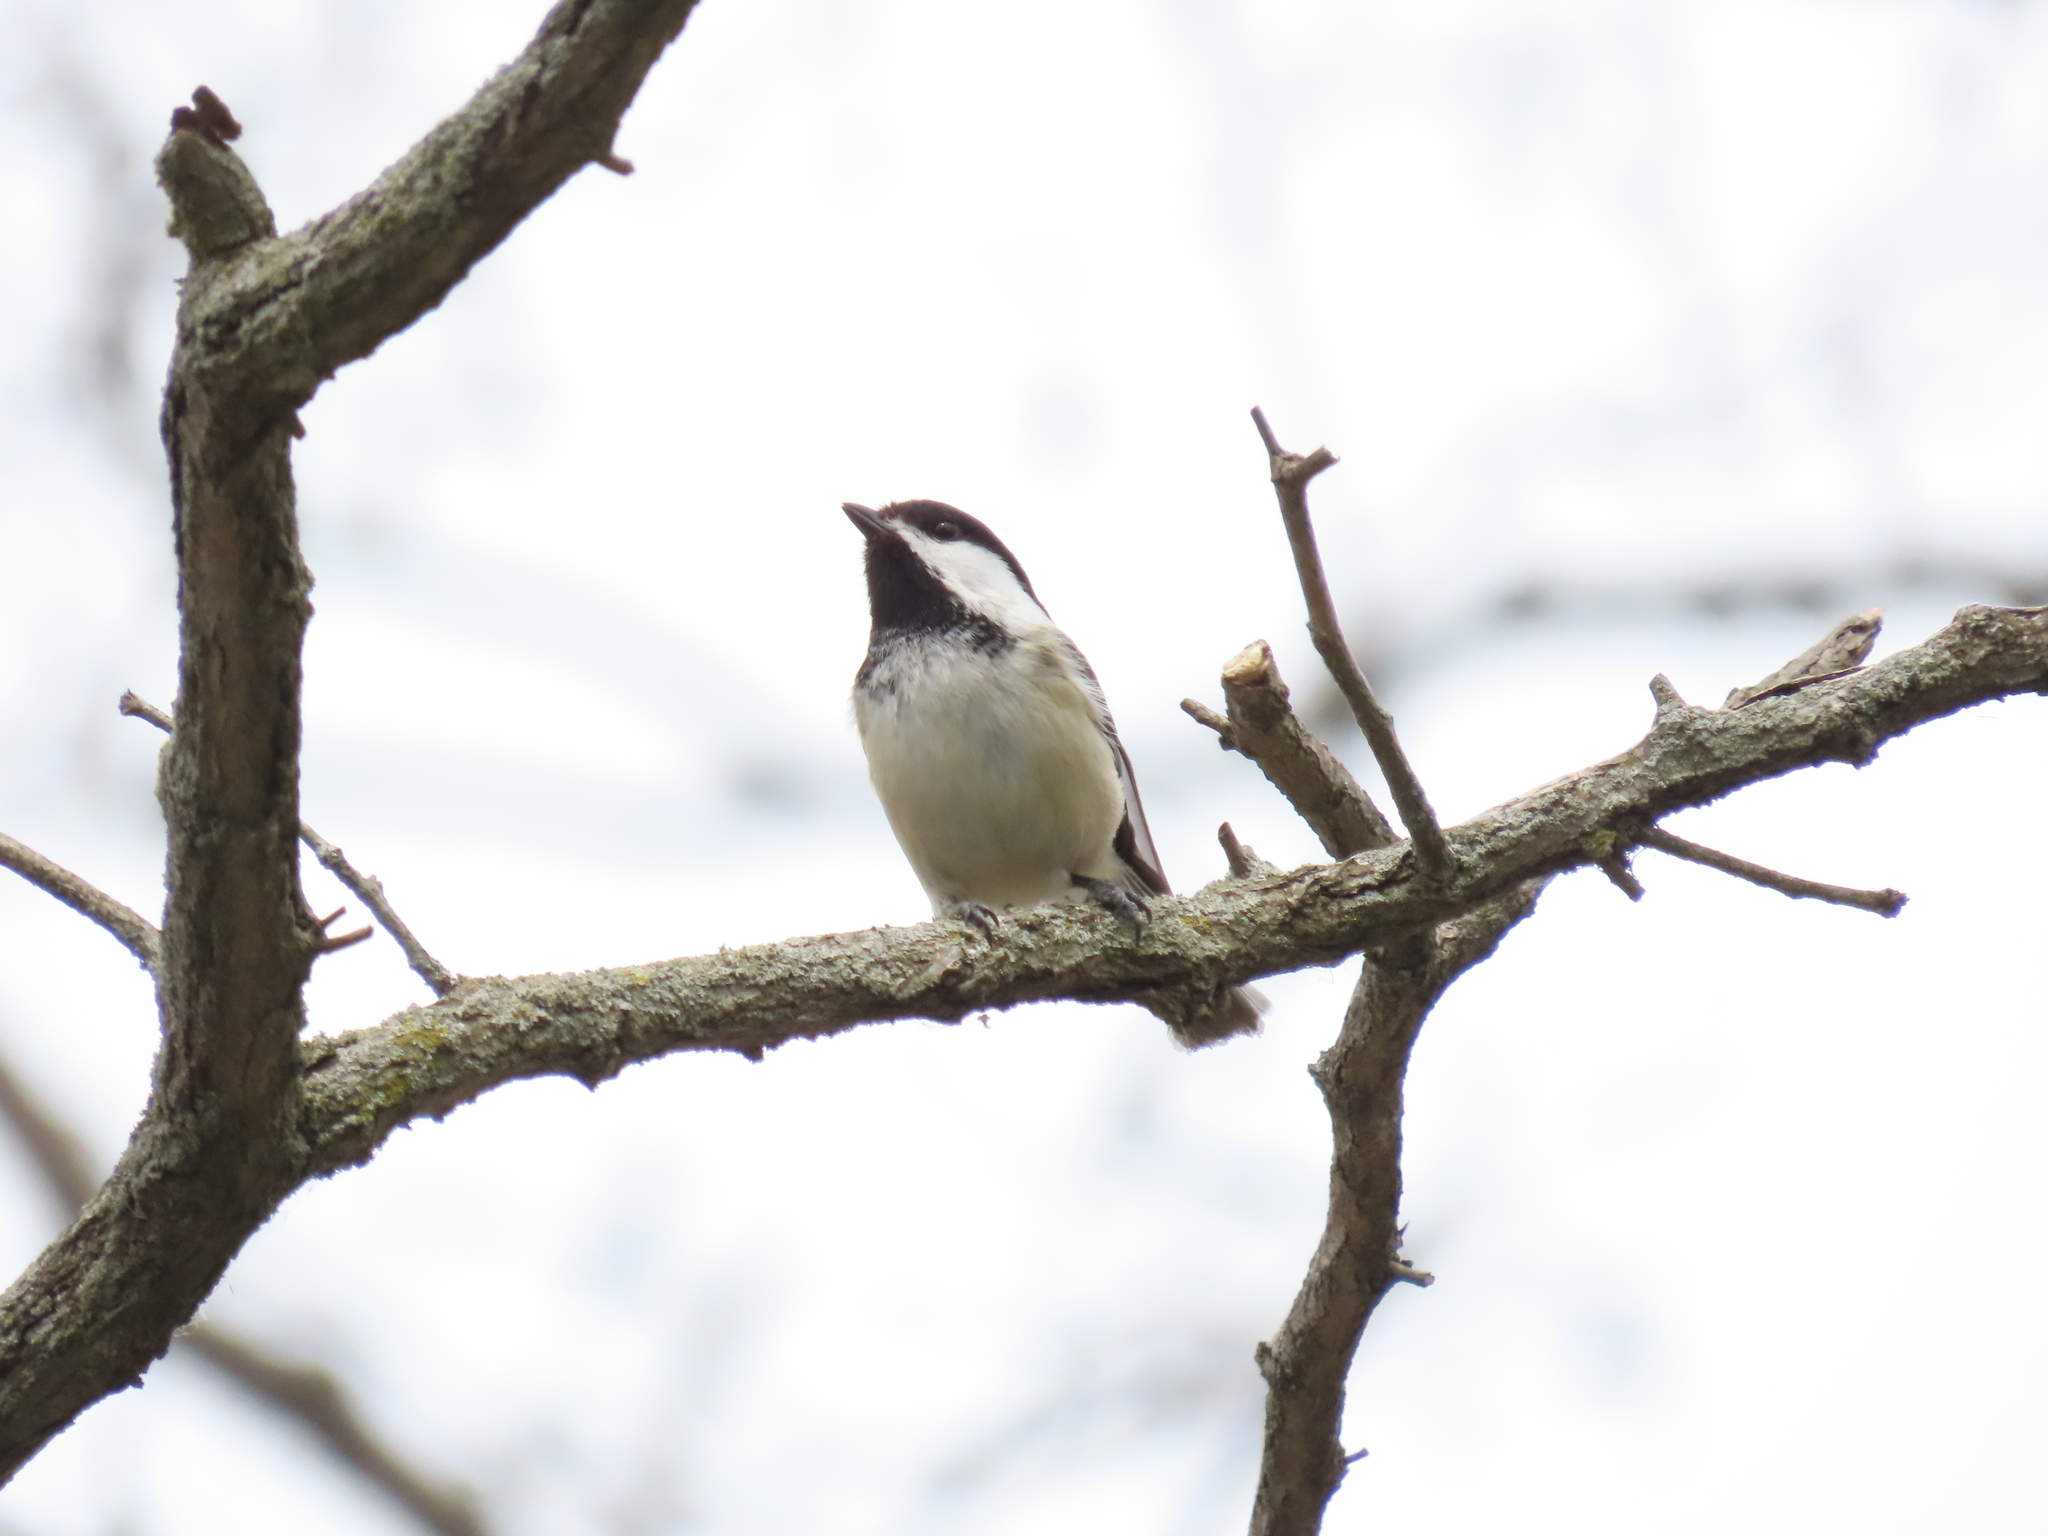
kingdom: Animalia
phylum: Chordata
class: Aves
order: Passeriformes
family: Paridae
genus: Poecile
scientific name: Poecile atricapillus
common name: Black-capped chickadee
